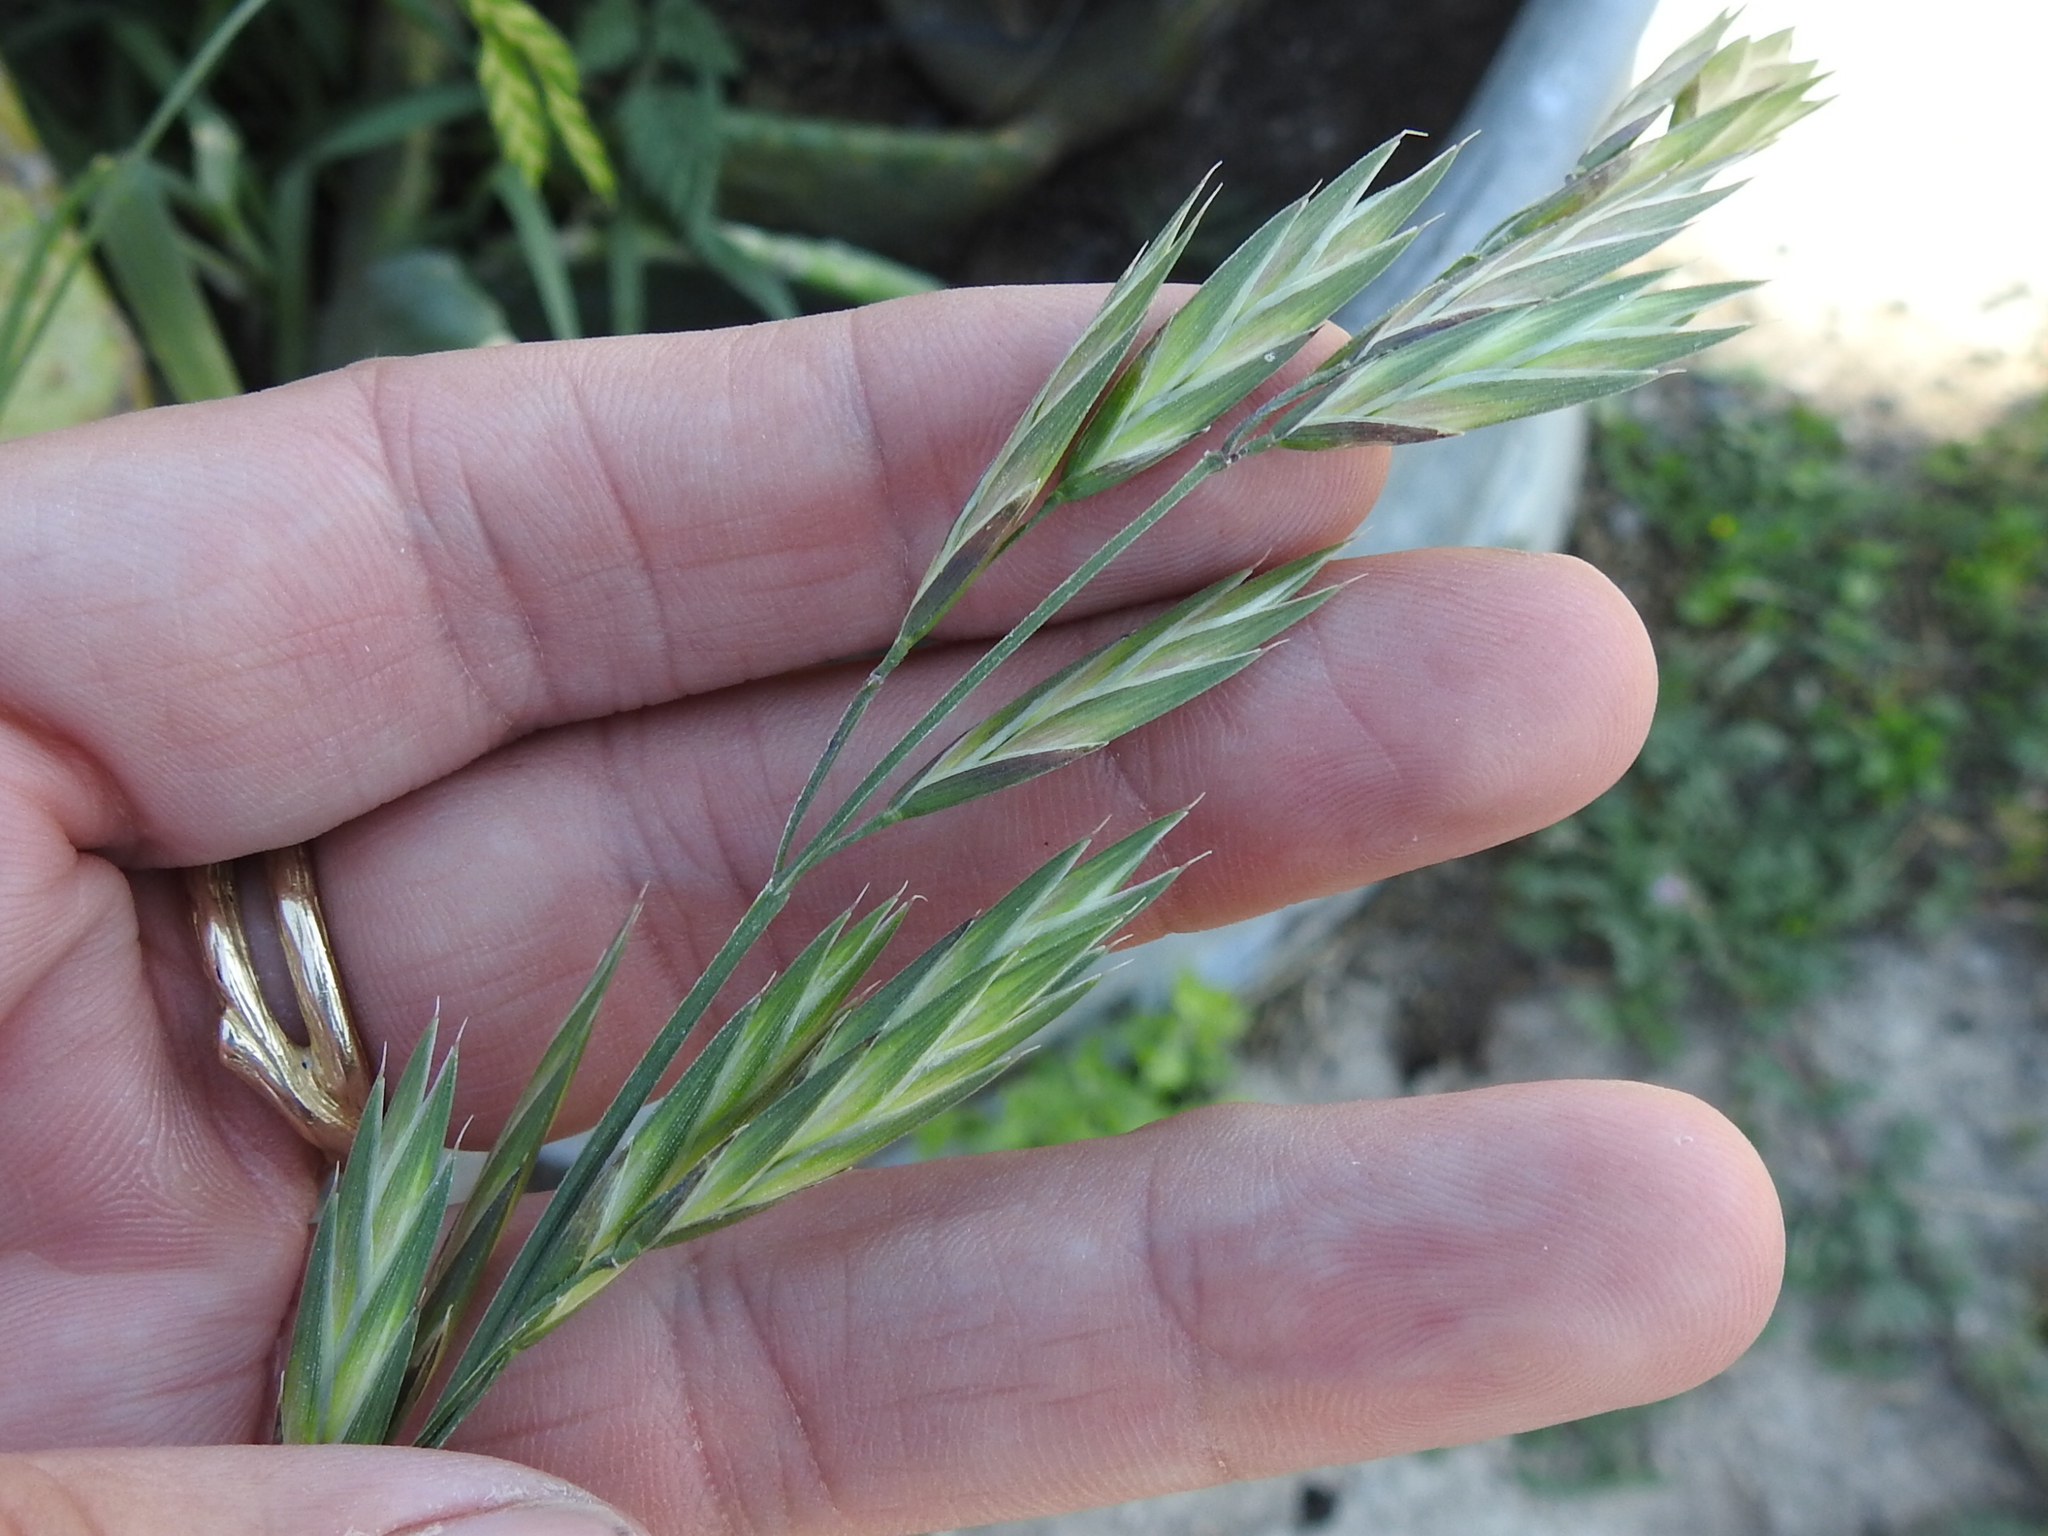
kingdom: Plantae
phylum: Tracheophyta
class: Liliopsida
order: Poales
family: Poaceae
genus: Bromus
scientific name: Bromus catharticus
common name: Rescuegrass
